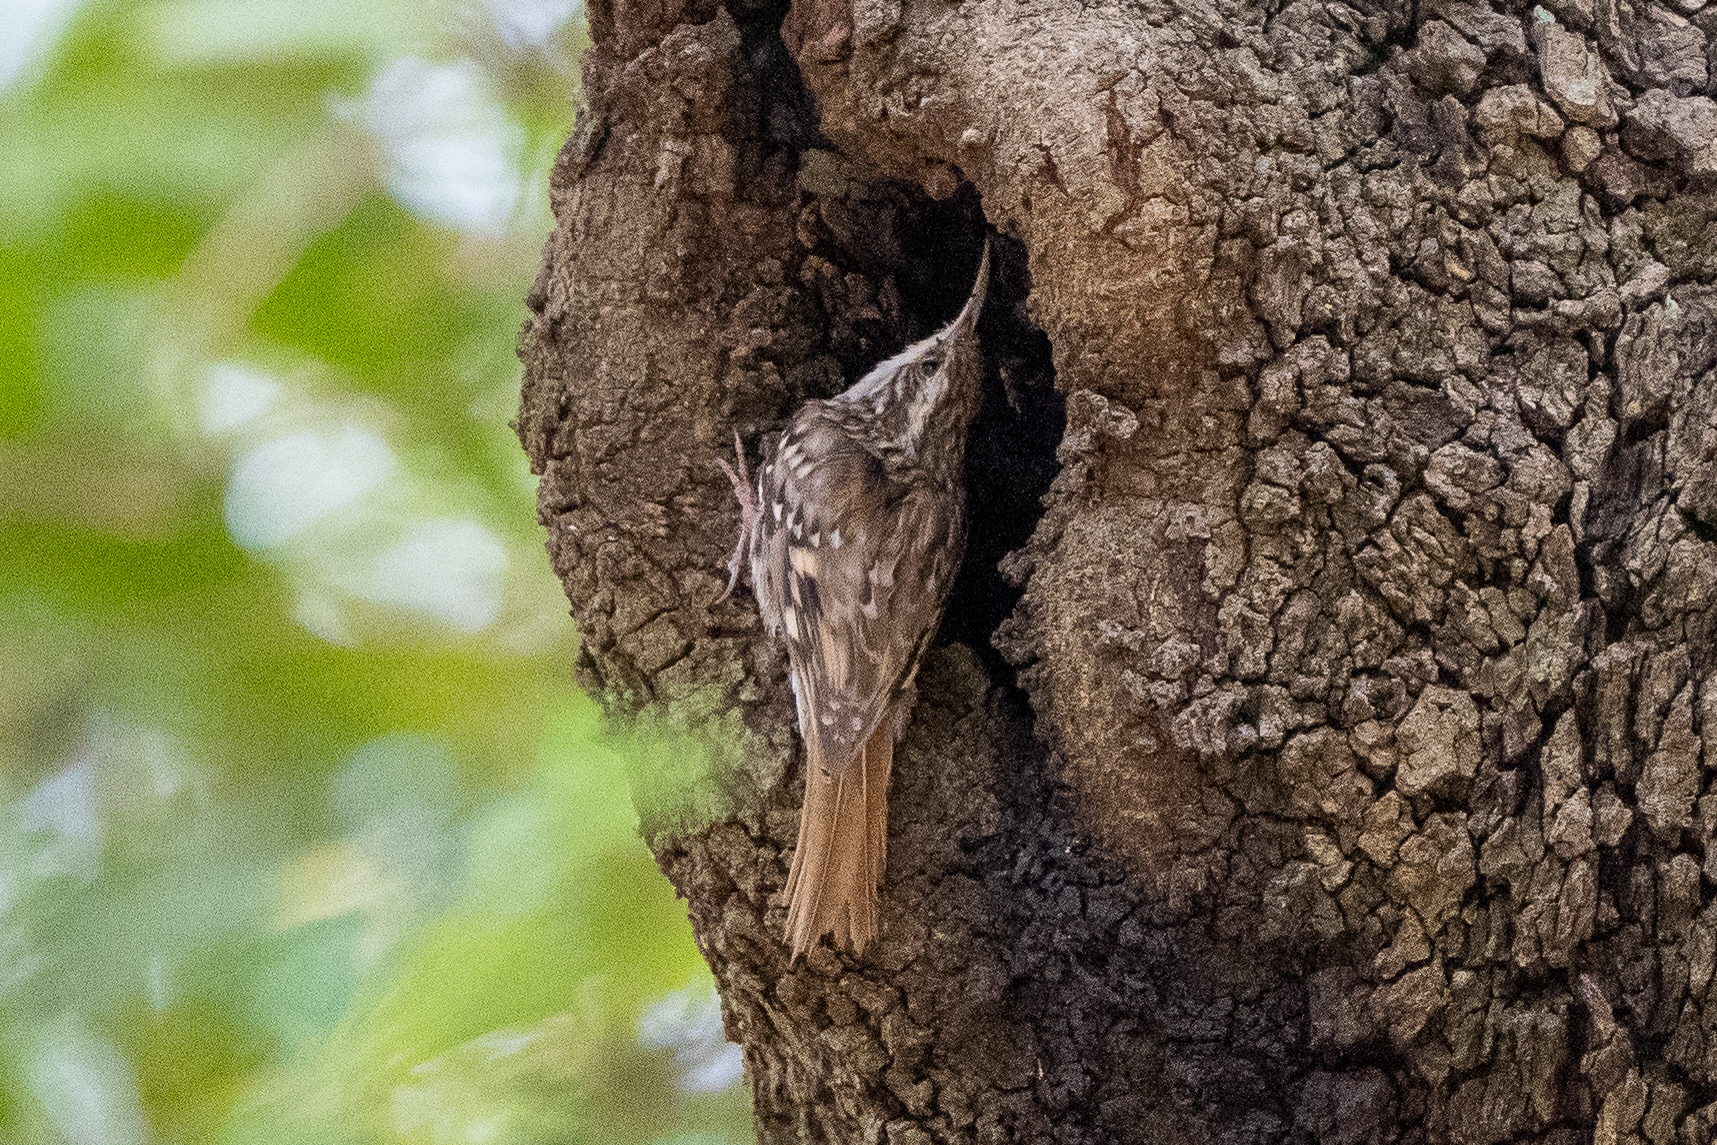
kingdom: Animalia
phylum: Chordata
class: Aves
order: Passeriformes
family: Certhiidae
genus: Certhia
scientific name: Certhia brachydactyla
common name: Short-toed treecreeper
